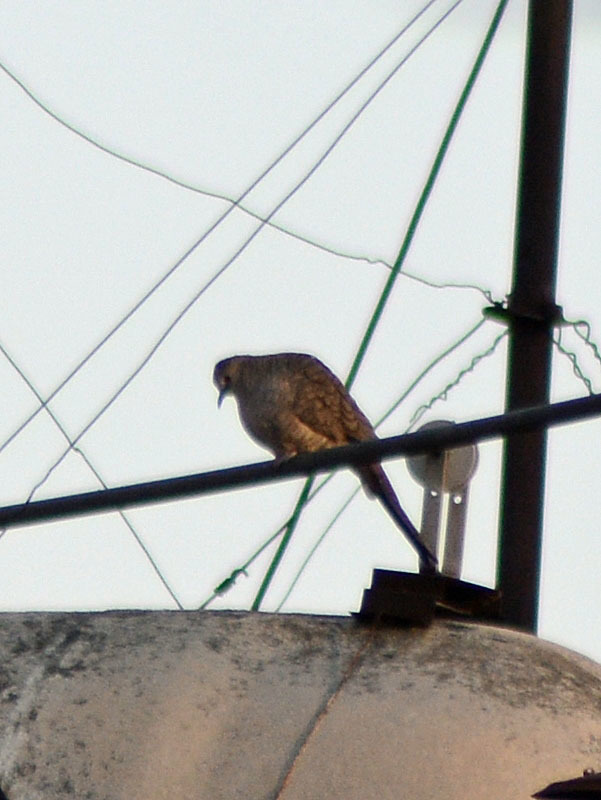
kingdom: Animalia
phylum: Chordata
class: Aves
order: Columbiformes
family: Columbidae
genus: Columbina
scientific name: Columbina inca
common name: Inca dove
